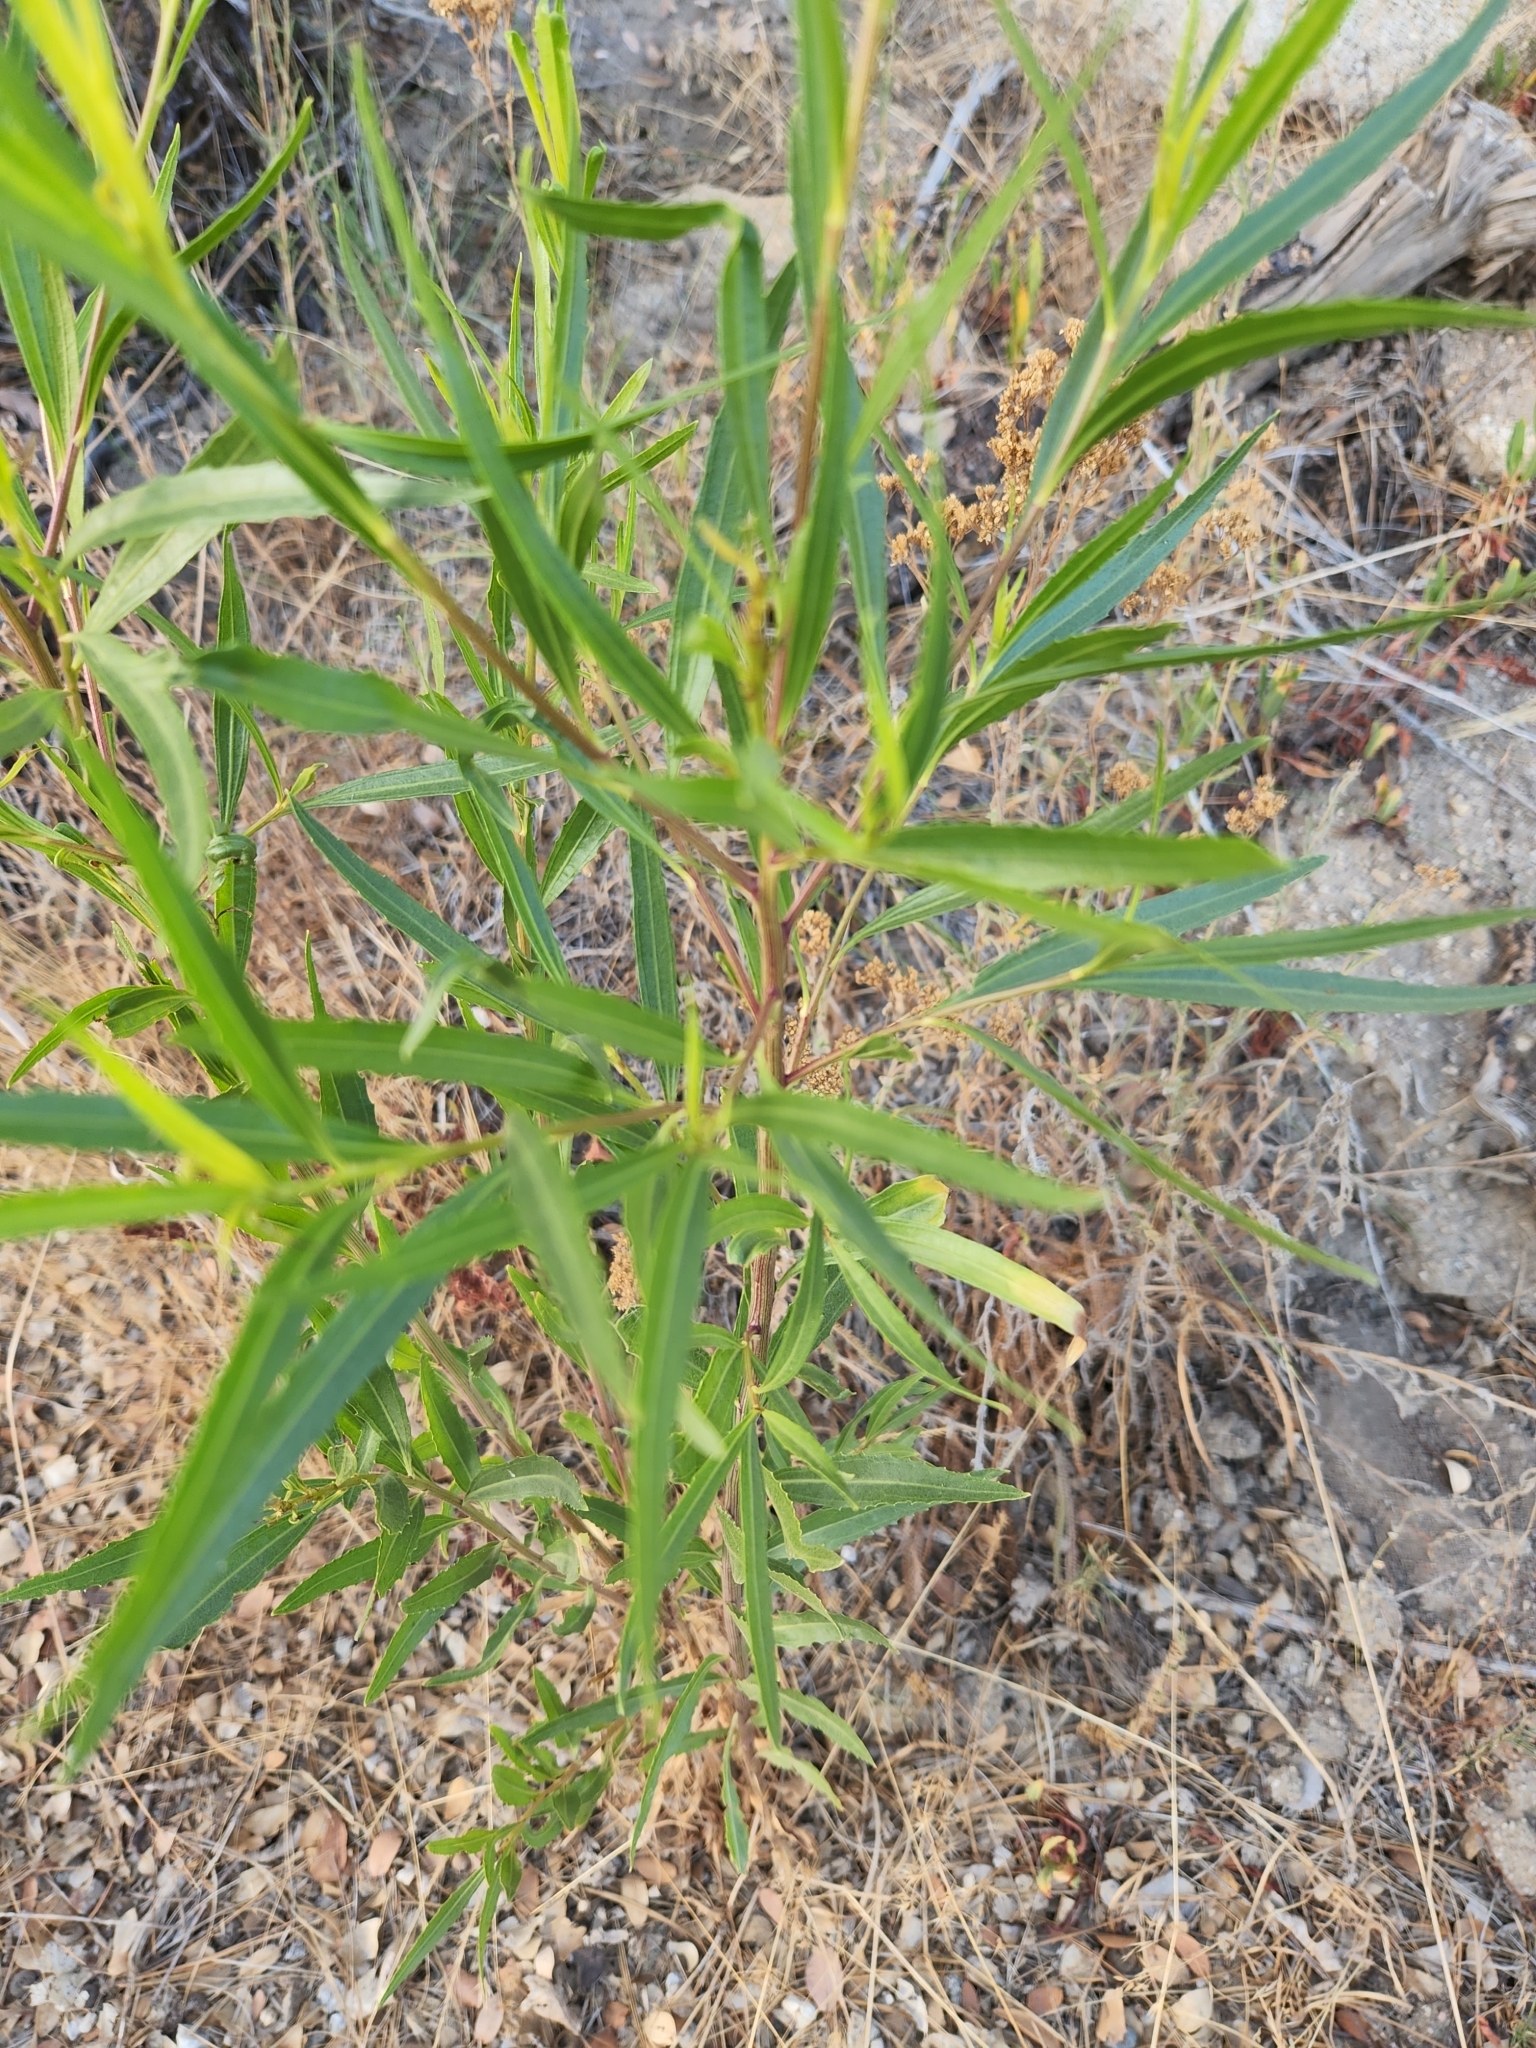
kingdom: Plantae
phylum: Tracheophyta
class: Magnoliopsida
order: Asterales
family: Asteraceae
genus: Baccharis
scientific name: Baccharis salicifolia
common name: Sticky baccharis
